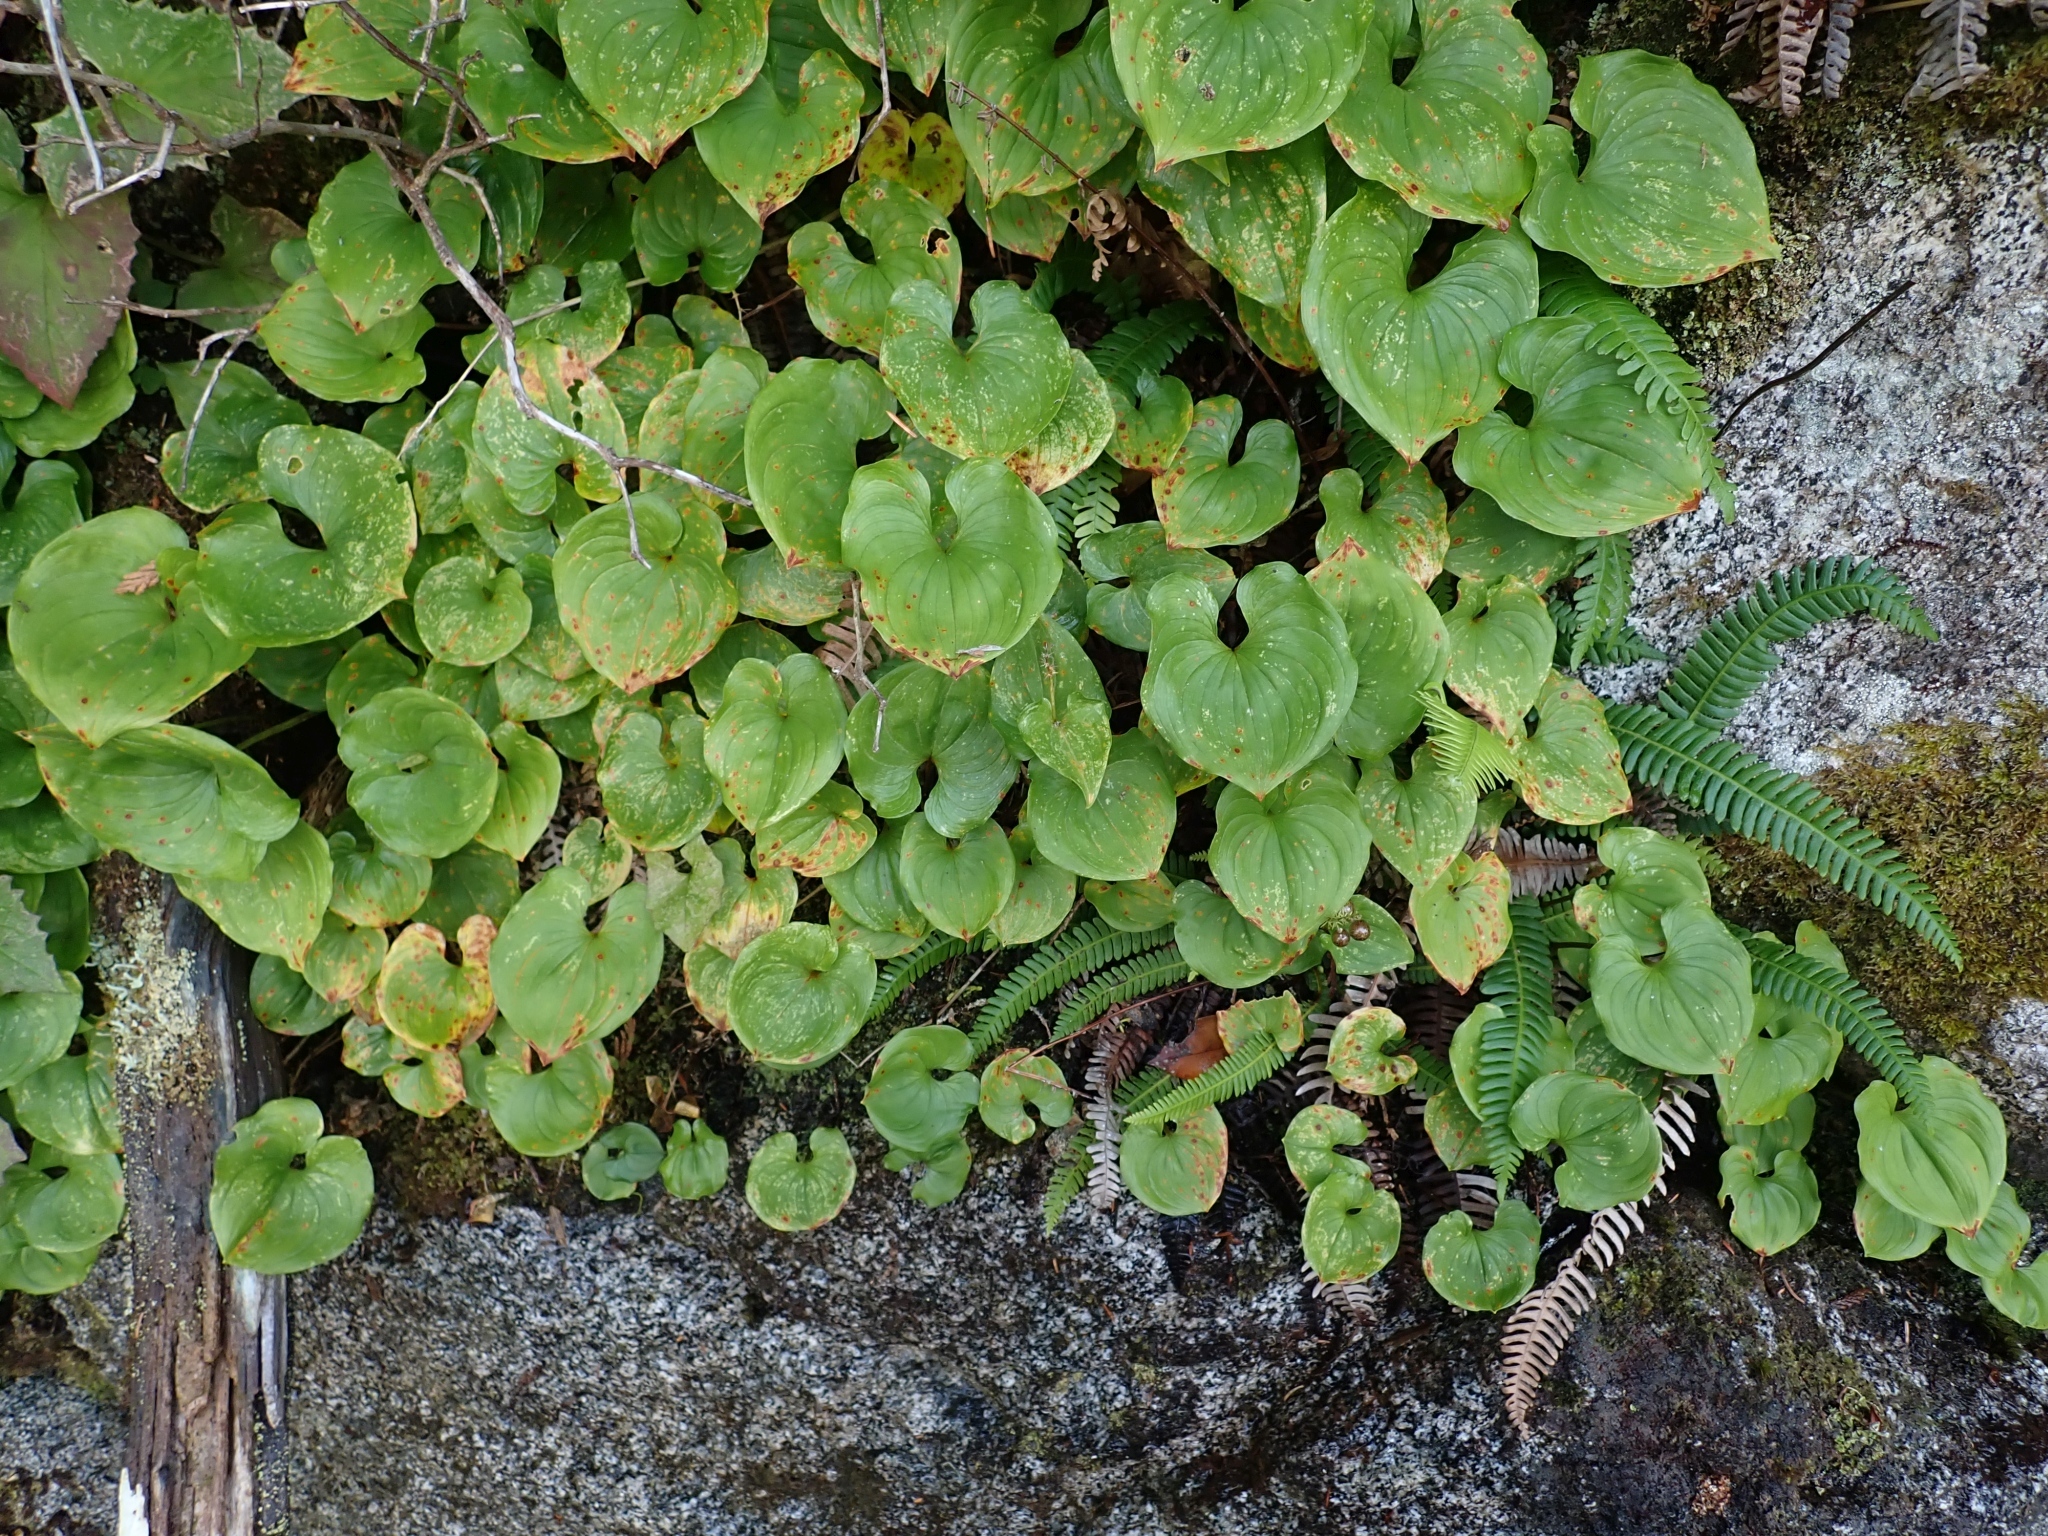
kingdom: Plantae
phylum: Tracheophyta
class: Liliopsida
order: Asparagales
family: Asparagaceae
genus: Maianthemum
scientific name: Maianthemum dilatatum
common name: False lily-of-the-valley
